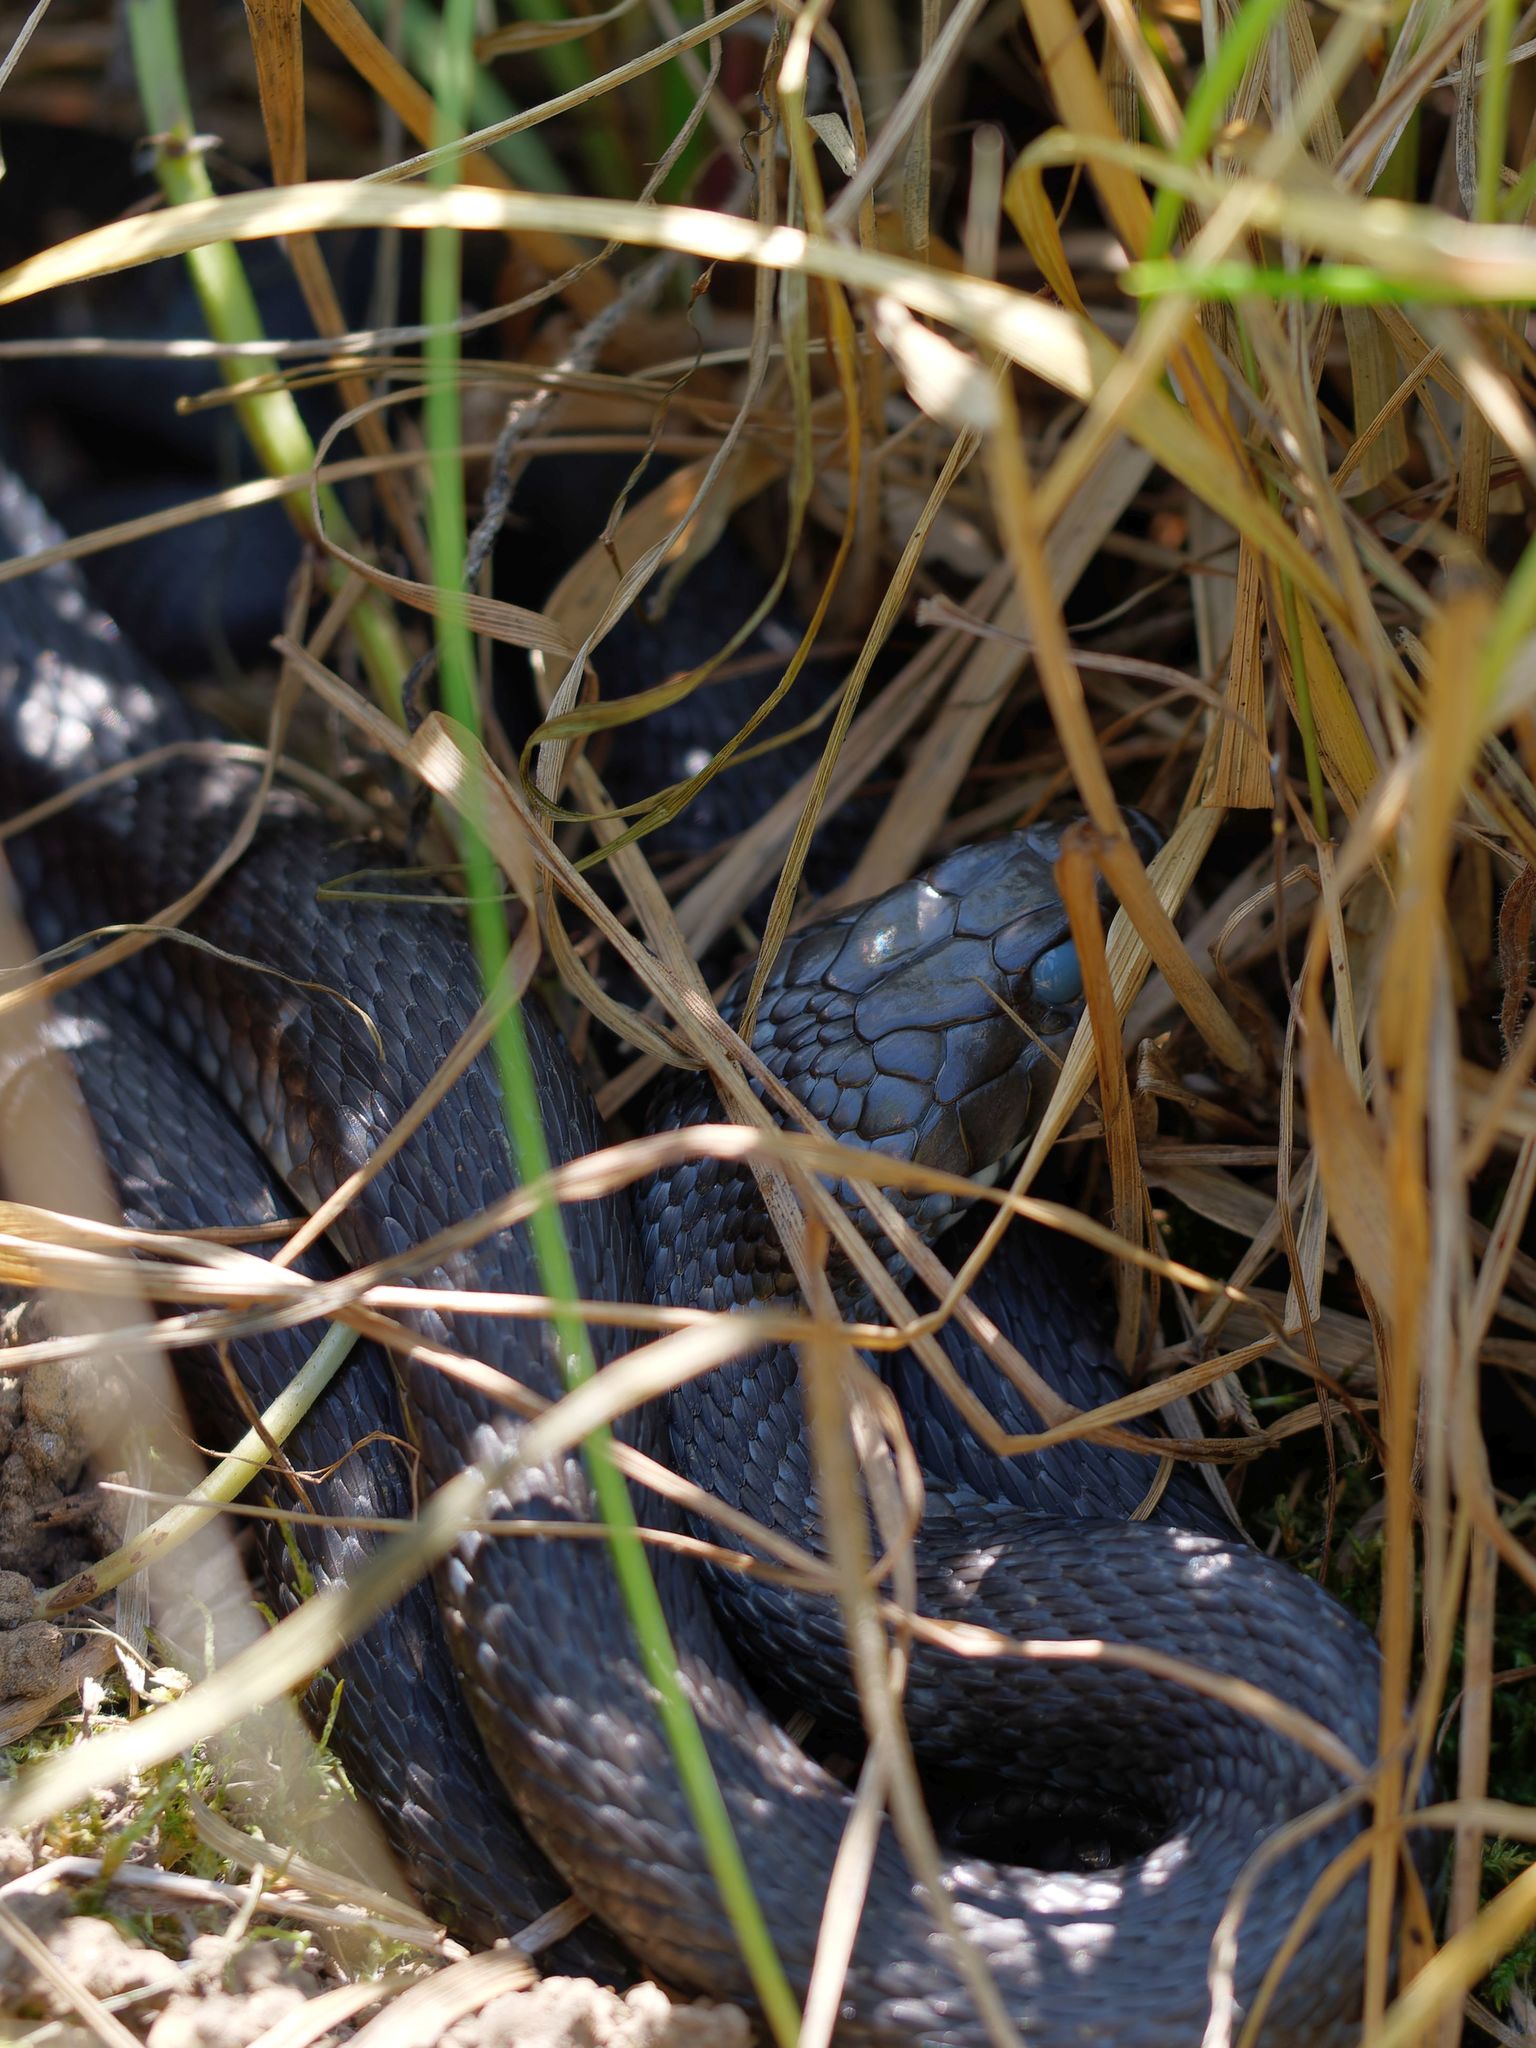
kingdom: Animalia
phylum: Chordata
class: Squamata
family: Colubridae
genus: Natrix
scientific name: Natrix natrix
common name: Grass snake
